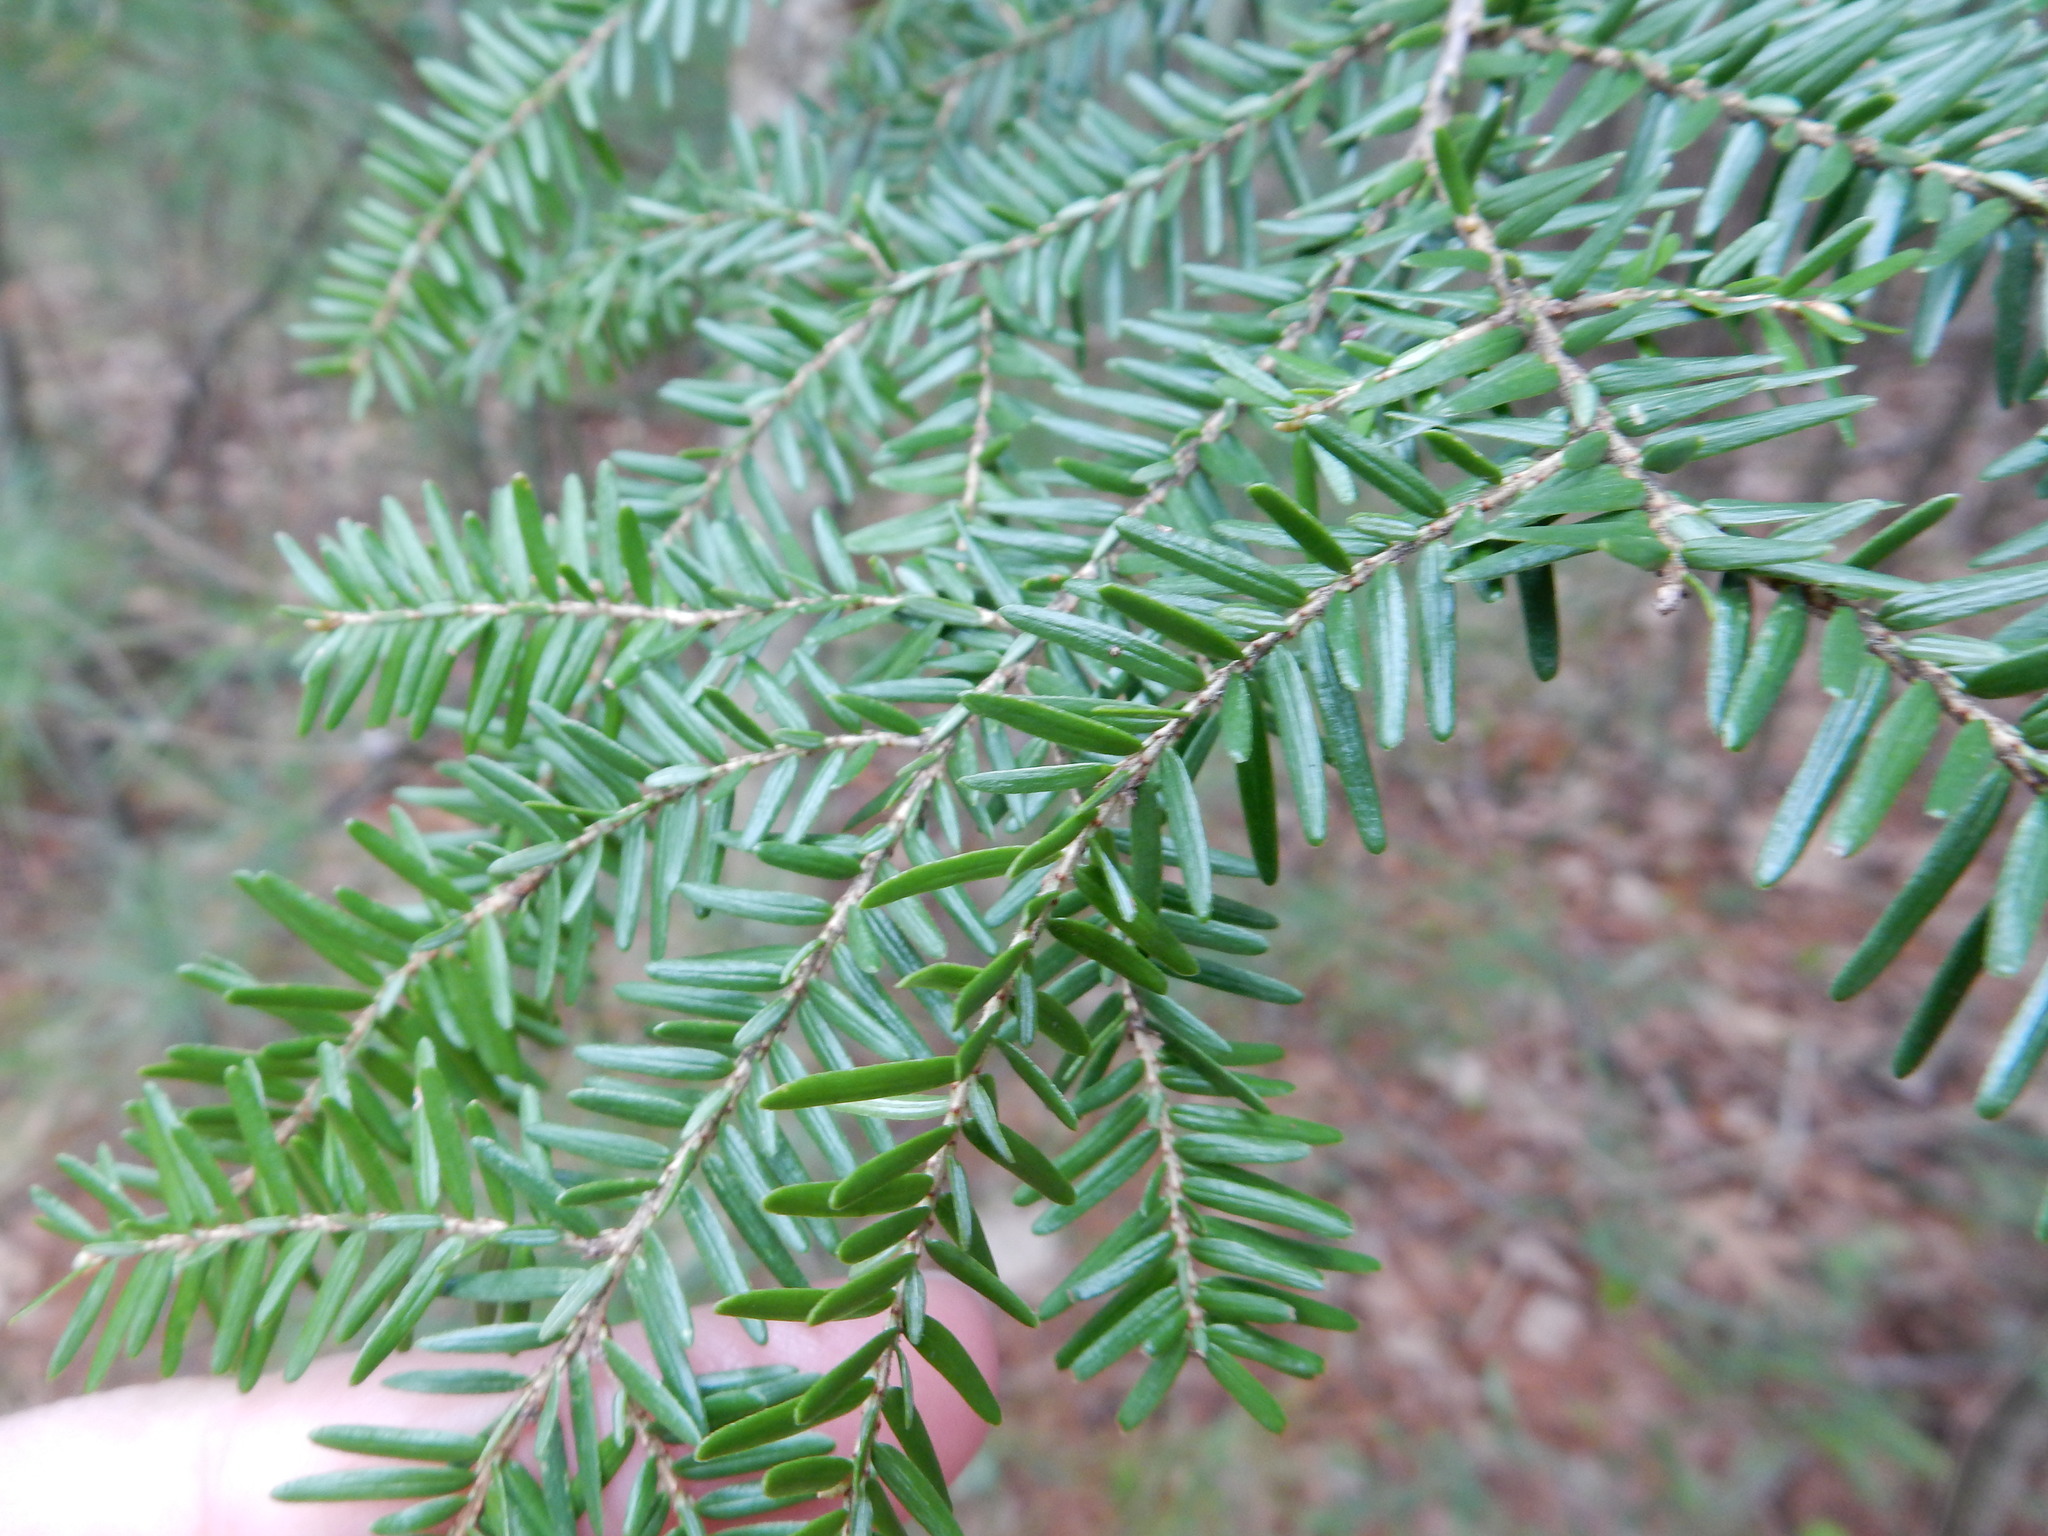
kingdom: Plantae
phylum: Tracheophyta
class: Pinopsida
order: Pinales
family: Pinaceae
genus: Tsuga
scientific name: Tsuga canadensis
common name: Eastern hemlock
